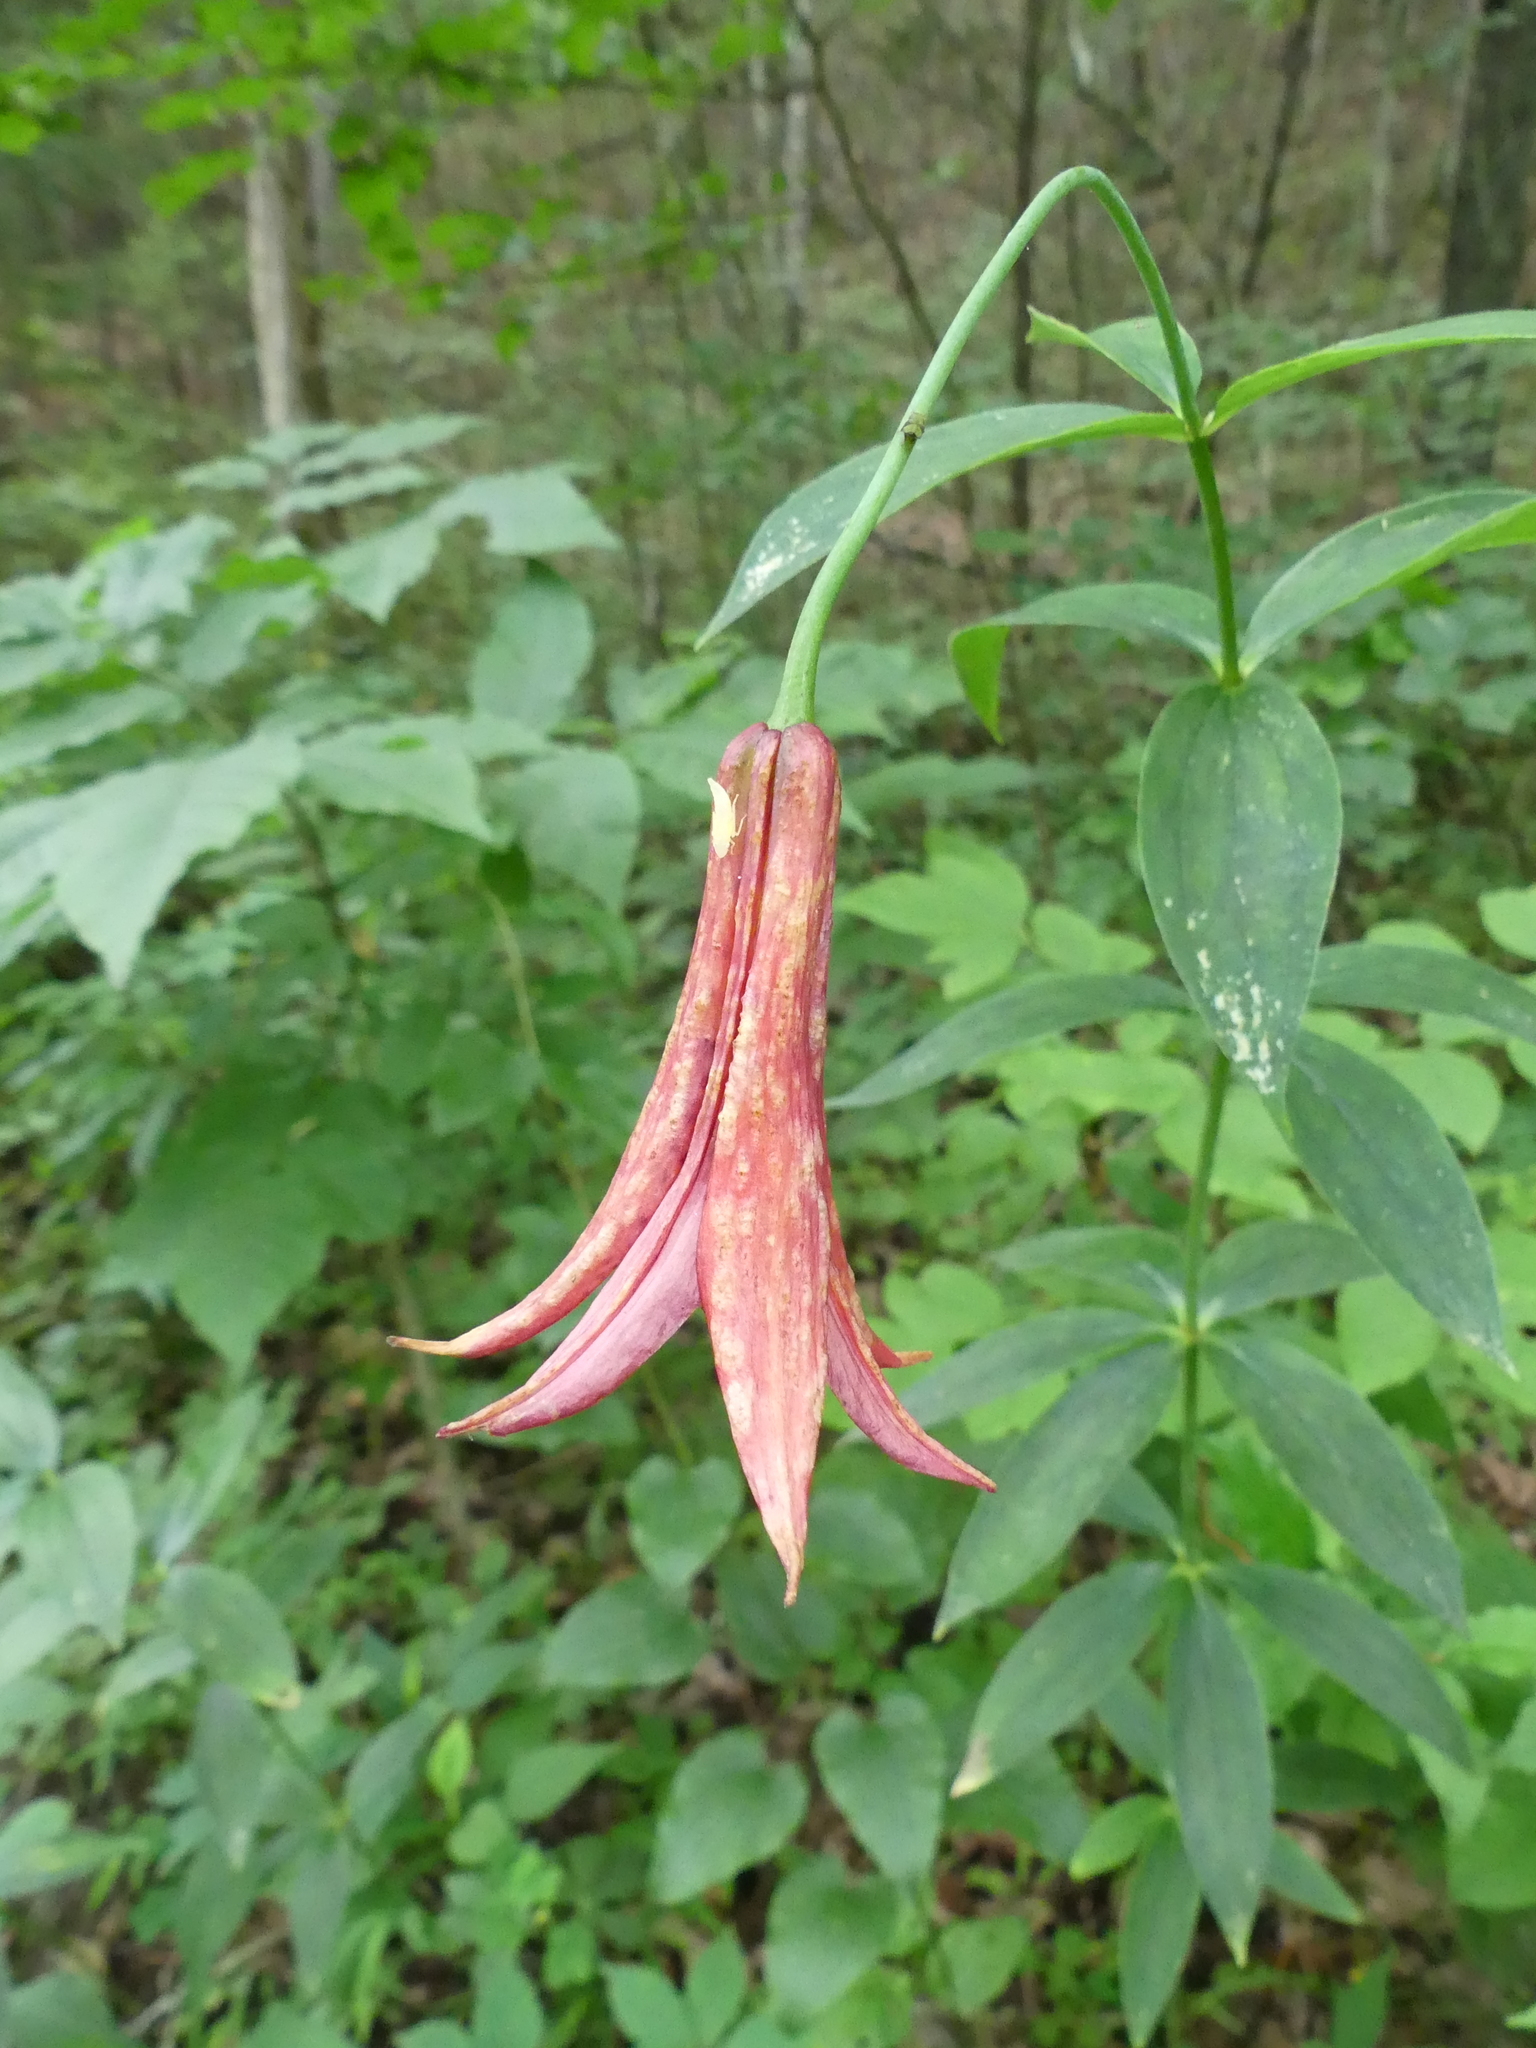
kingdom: Plantae
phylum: Tracheophyta
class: Liliopsida
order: Liliales
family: Liliaceae
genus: Lilium
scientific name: Lilium canadense
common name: Canada lily
